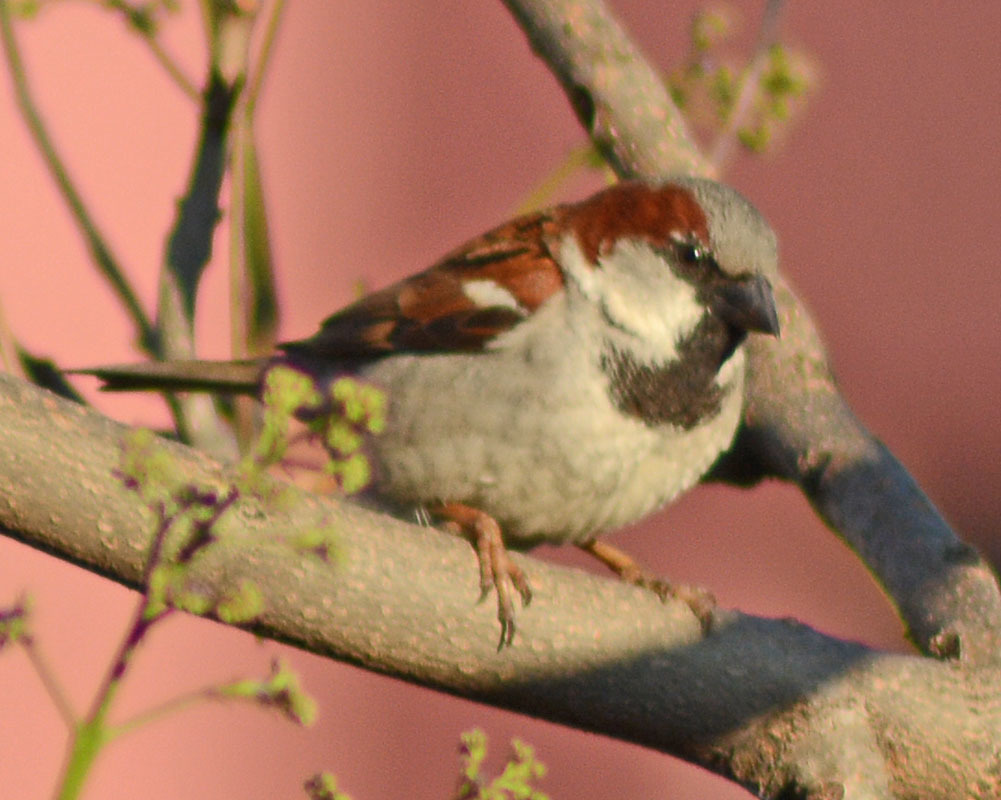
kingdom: Animalia
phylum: Chordata
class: Aves
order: Passeriformes
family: Passeridae
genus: Passer
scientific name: Passer domesticus
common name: House sparrow
